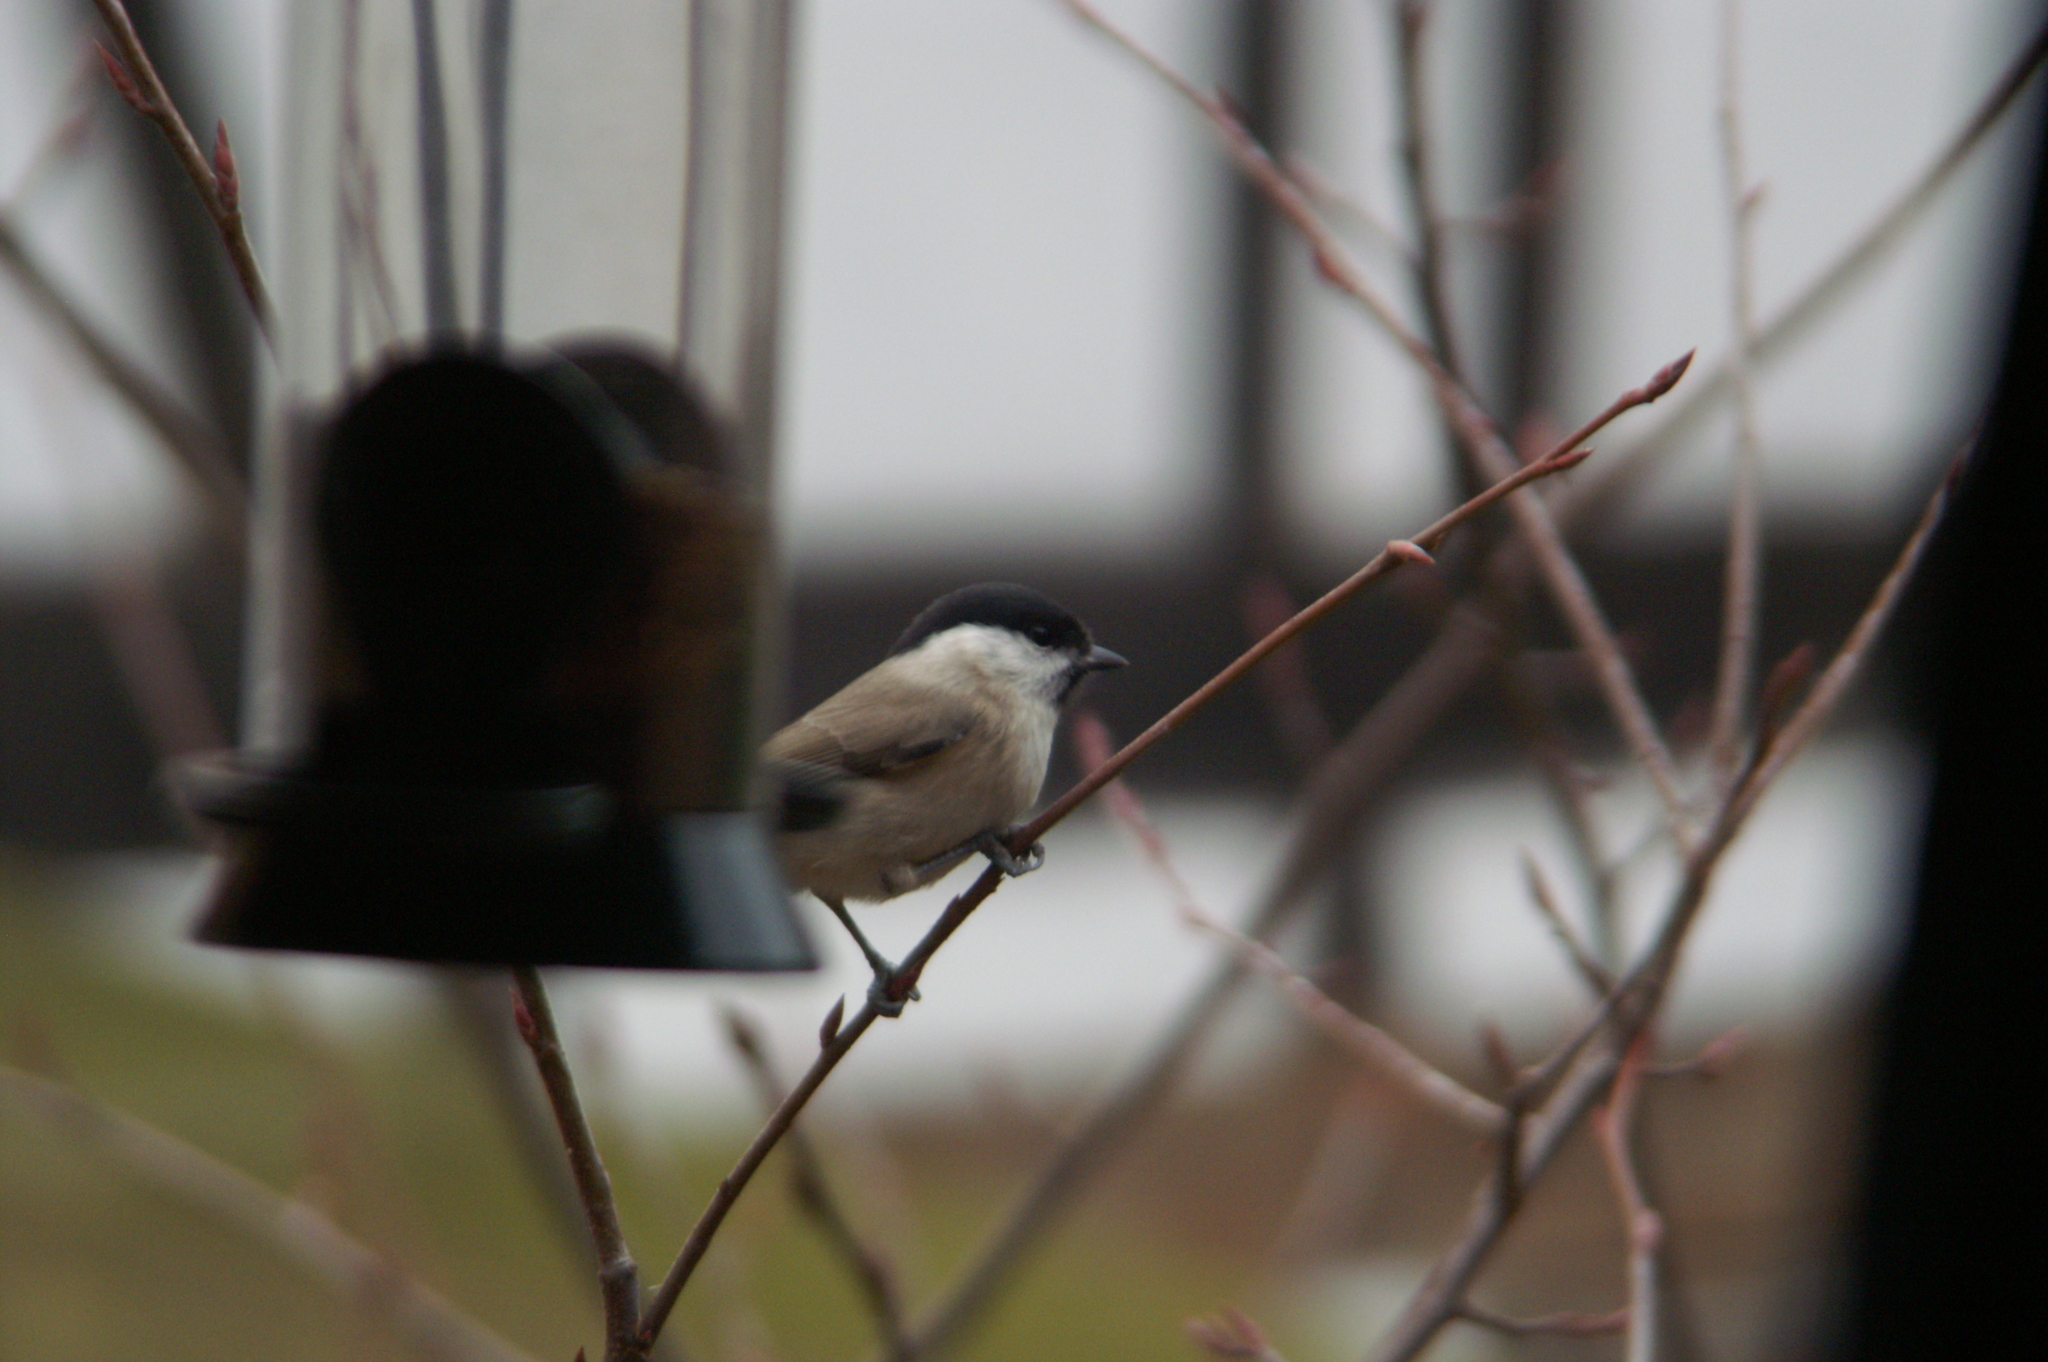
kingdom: Animalia
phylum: Chordata
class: Aves
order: Passeriformes
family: Paridae
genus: Poecile
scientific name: Poecile palustris
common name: Marsh tit
